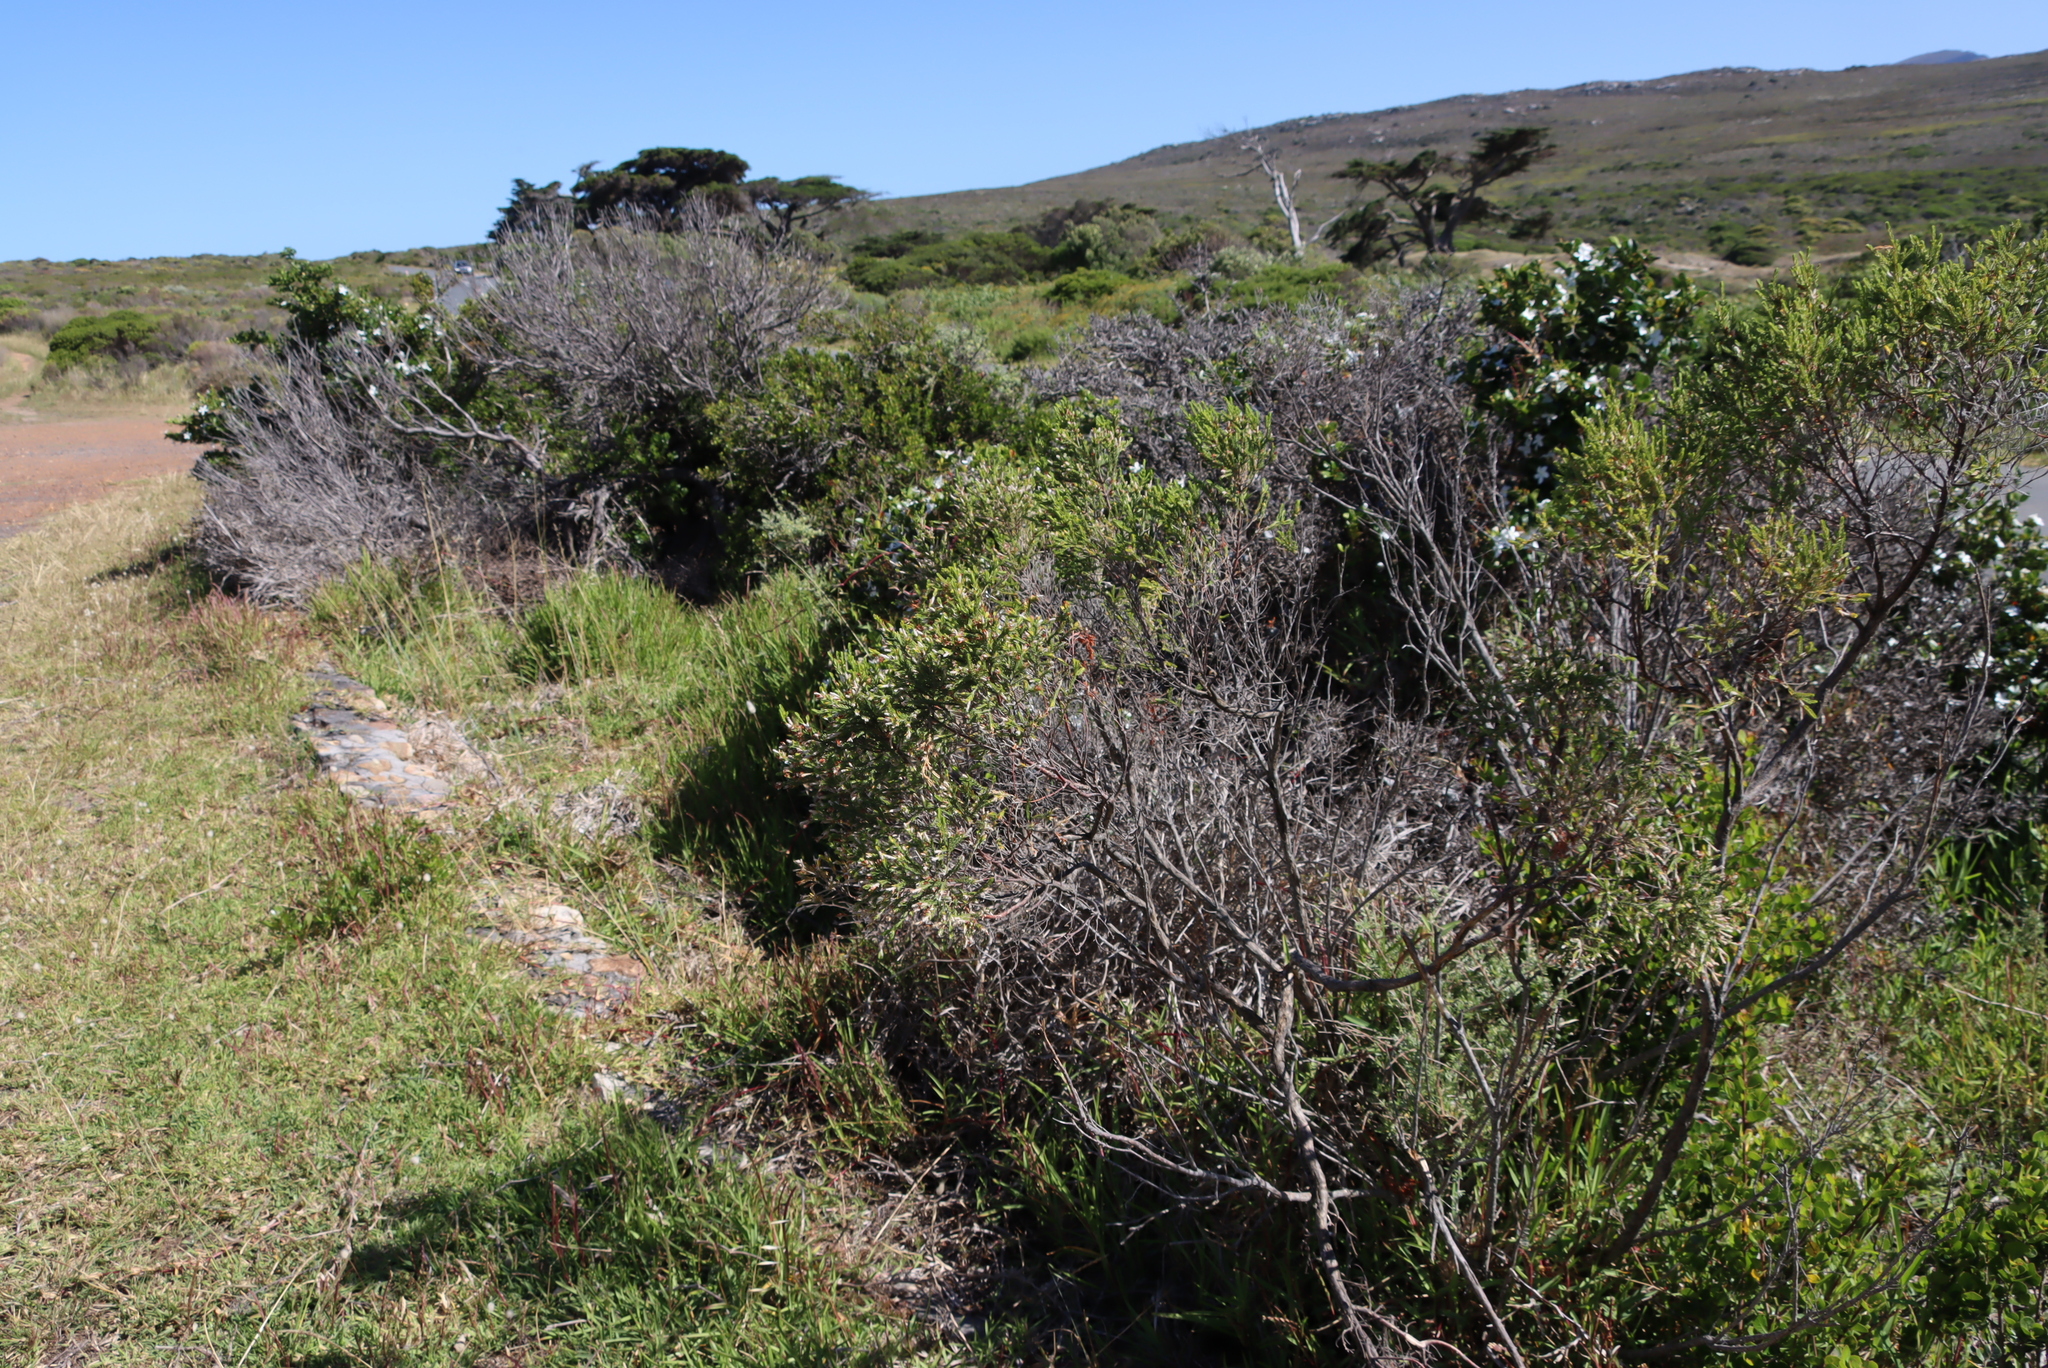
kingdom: Plantae
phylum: Tracheophyta
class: Liliopsida
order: Poales
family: Poaceae
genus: Stenotaphrum
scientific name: Stenotaphrum secundatum
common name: St. augustine grass
